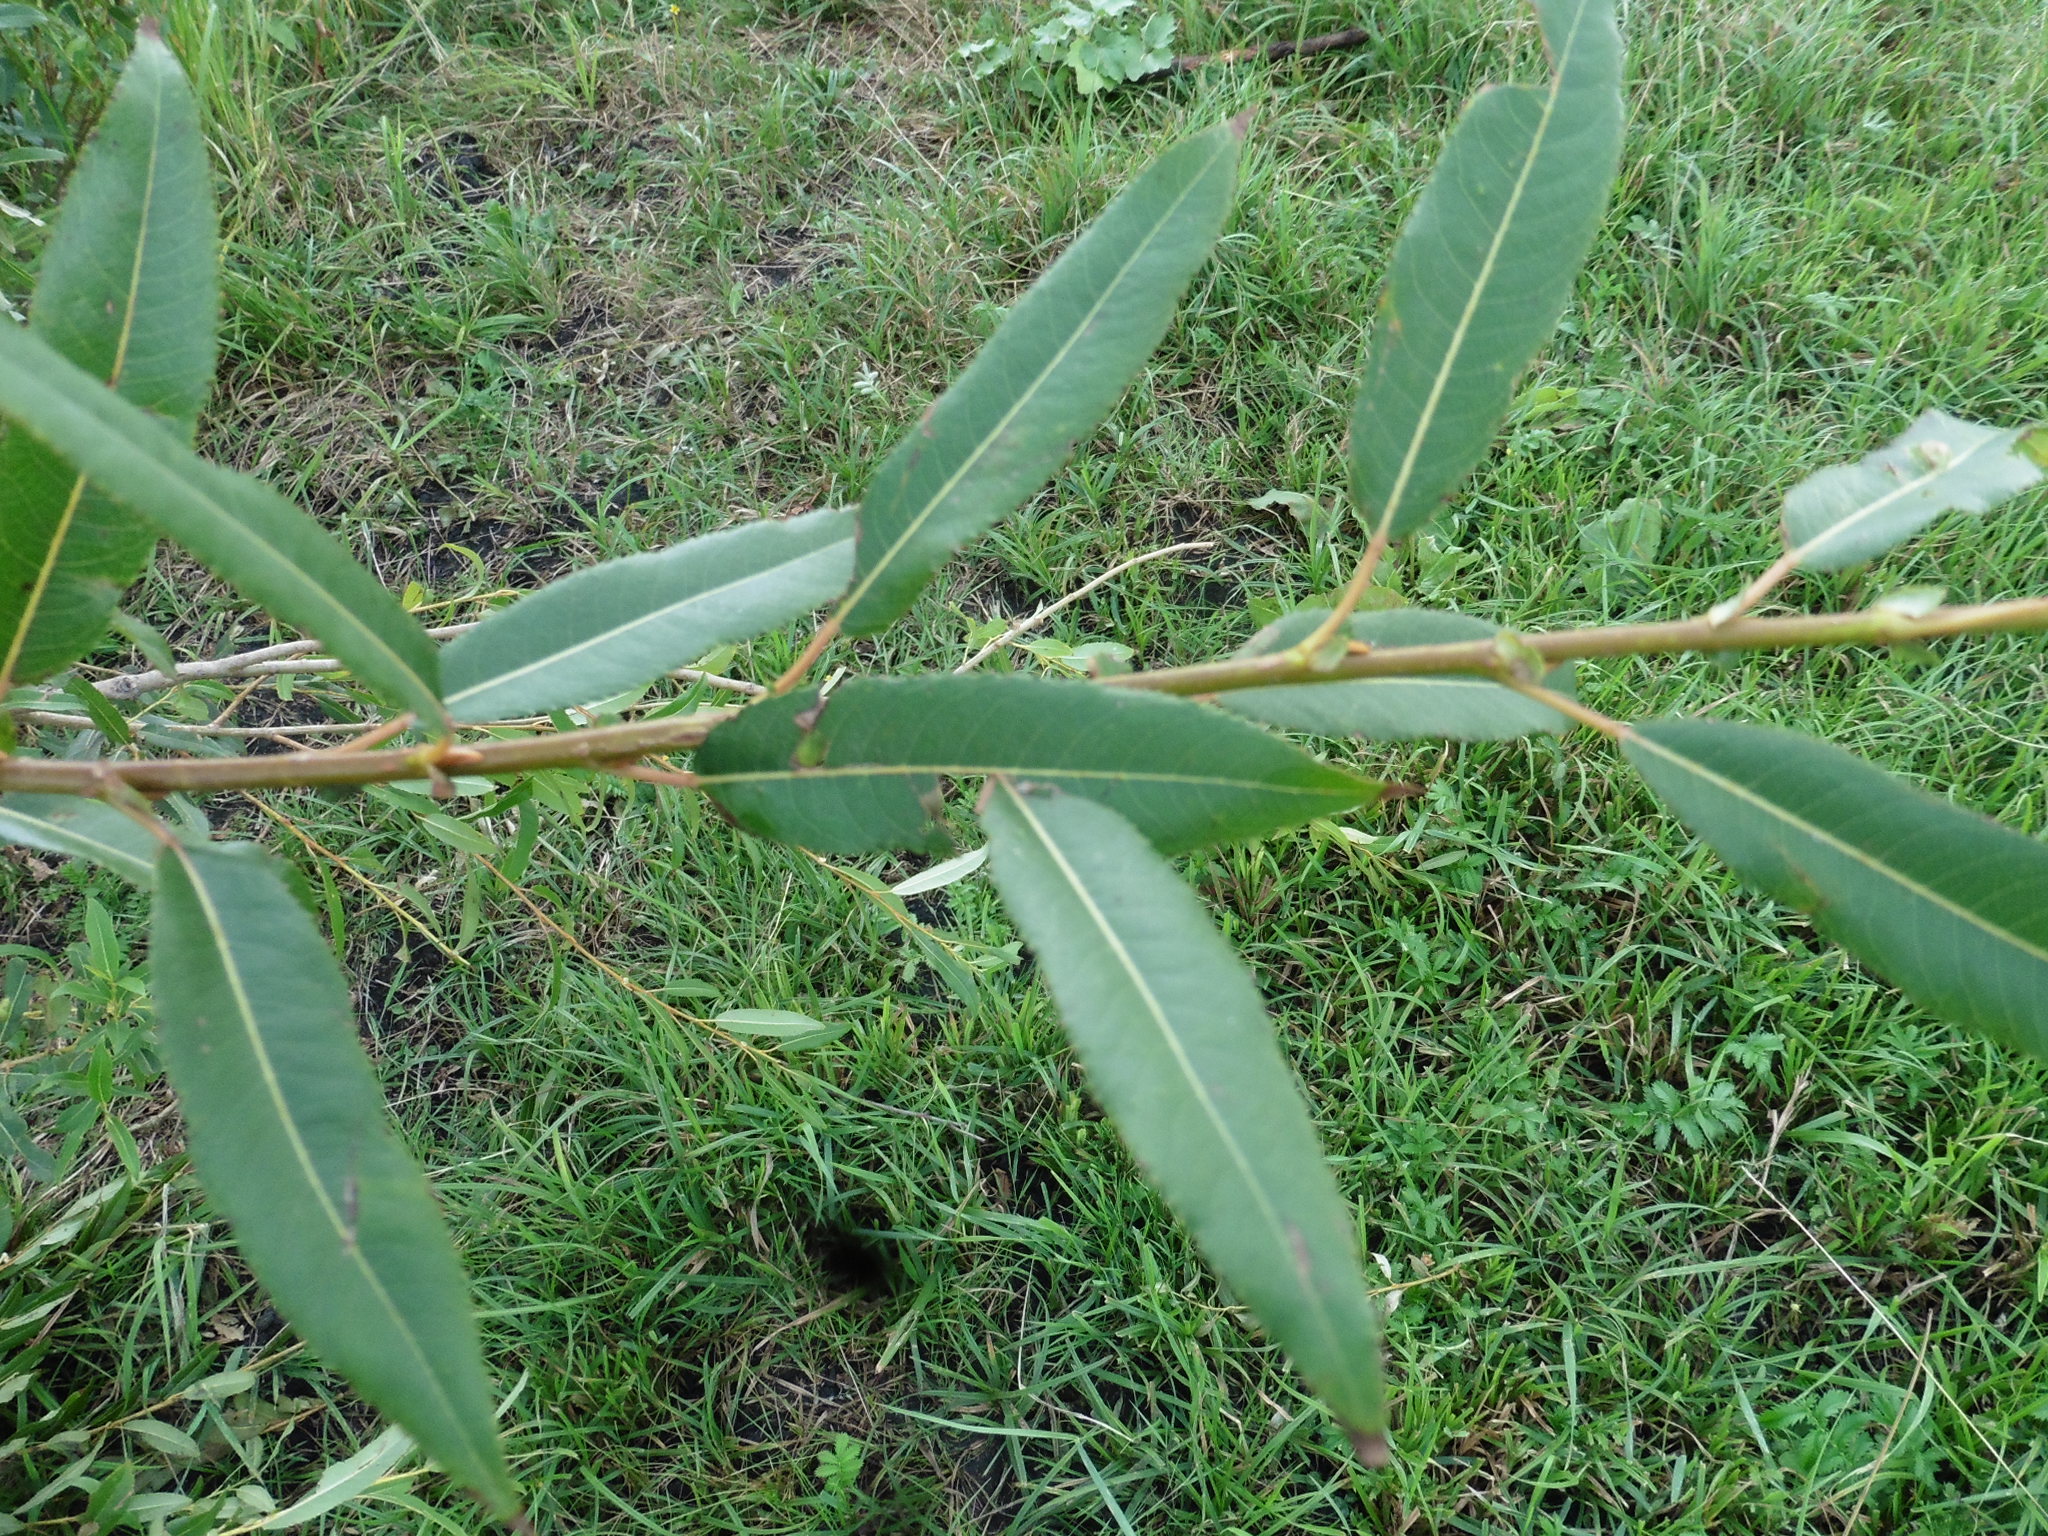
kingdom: Plantae
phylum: Tracheophyta
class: Magnoliopsida
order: Malpighiales
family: Salicaceae
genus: Salix
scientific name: Salix triandra
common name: Almond willow
